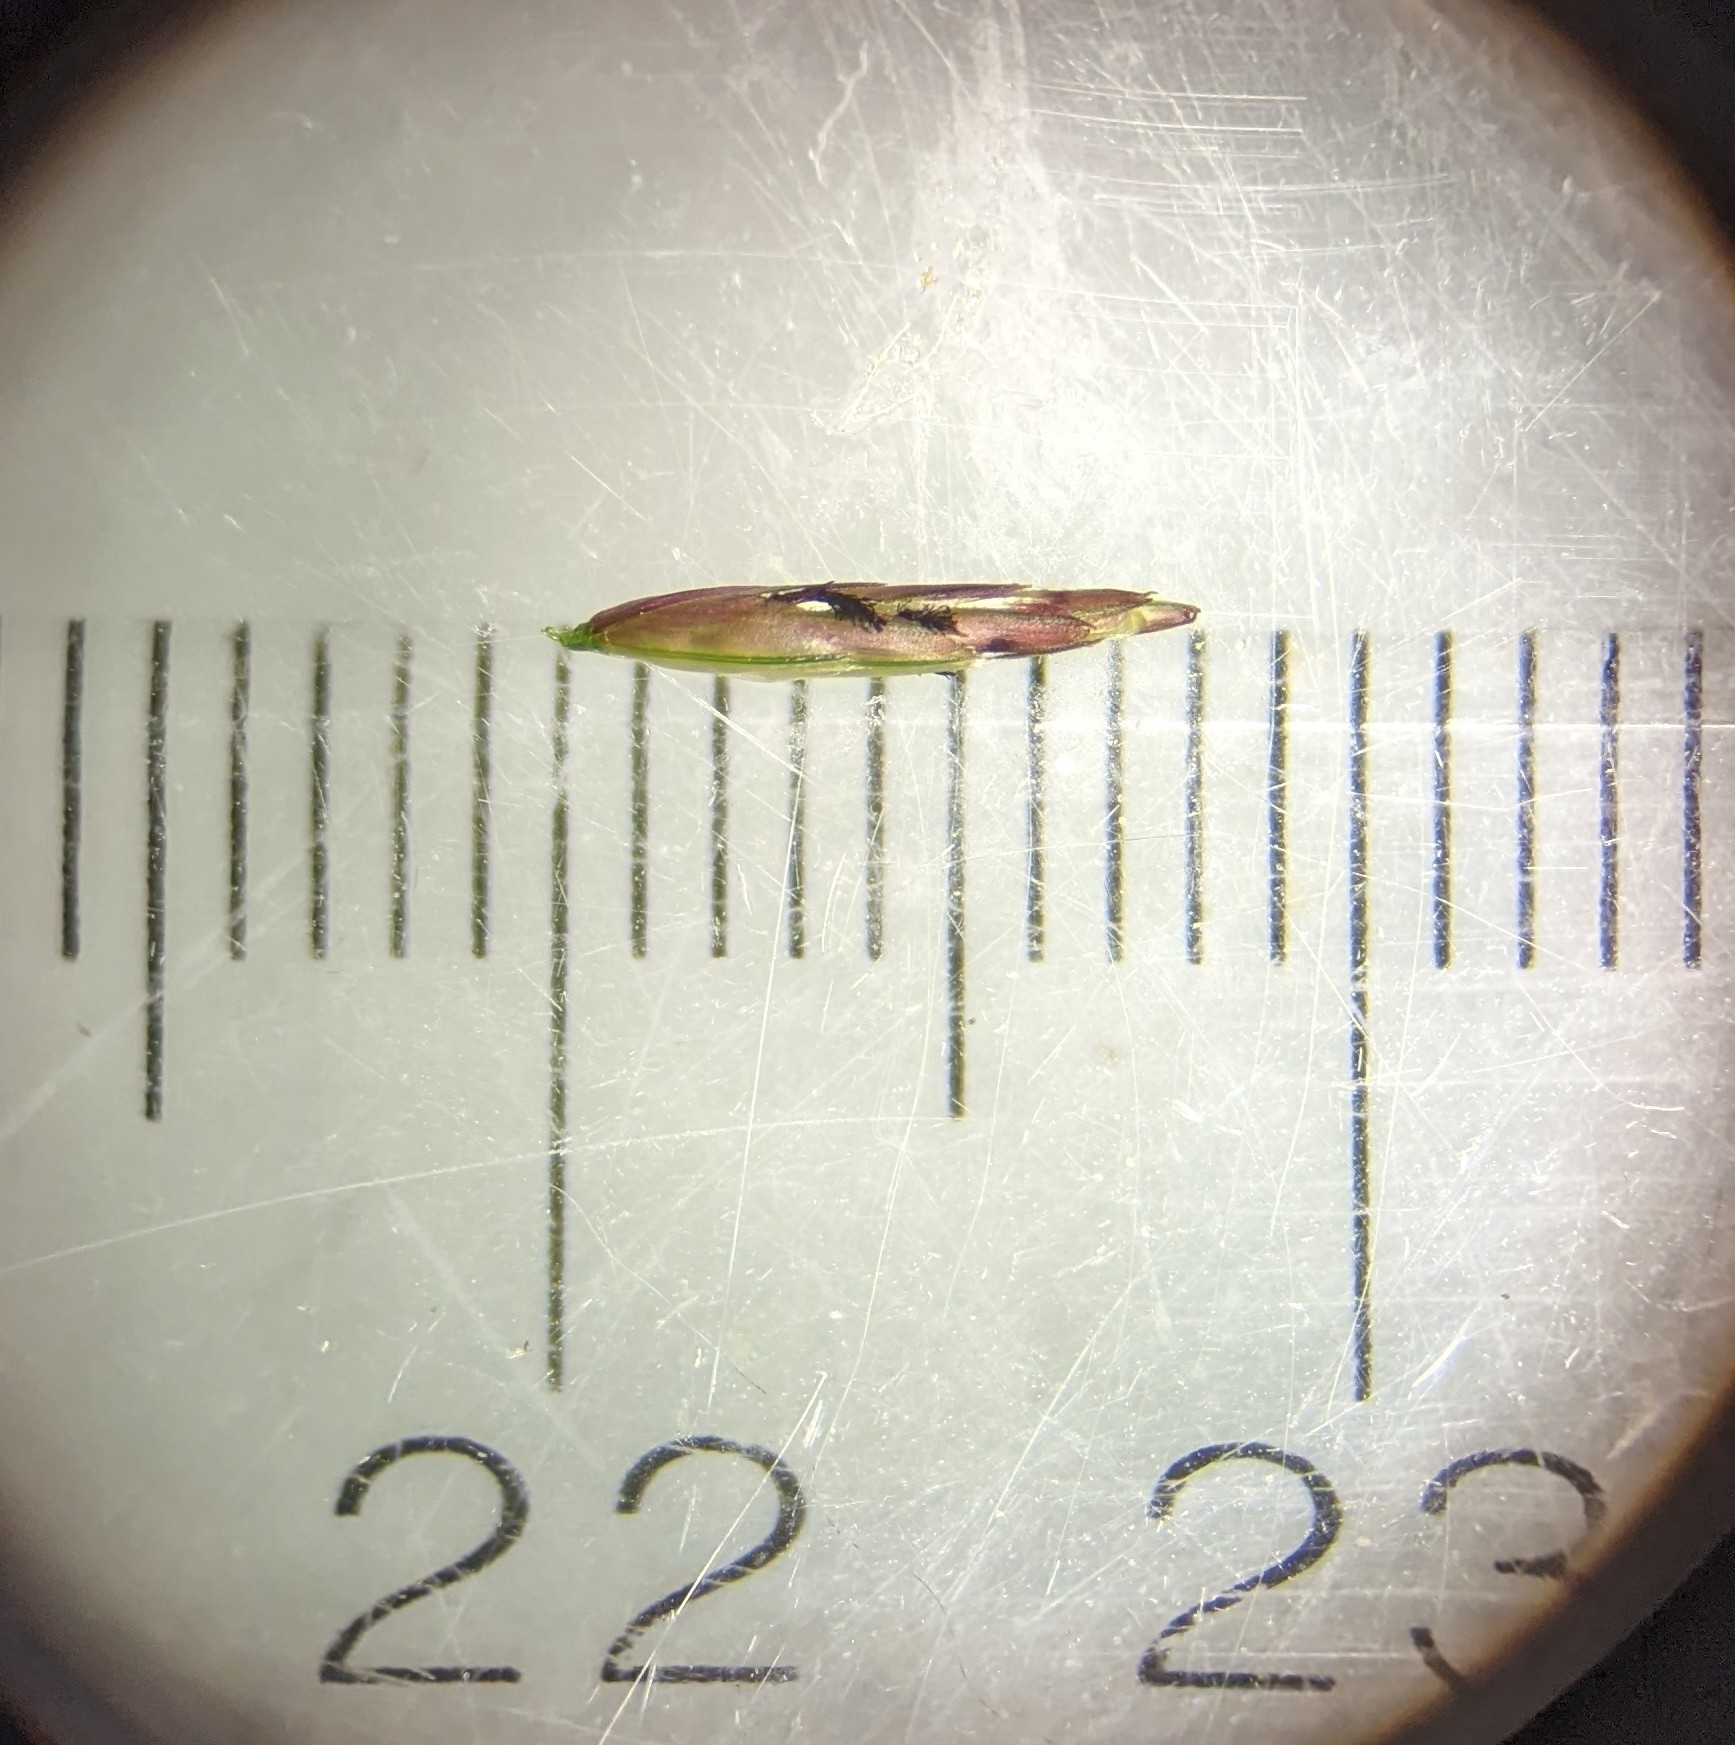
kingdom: Plantae
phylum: Tracheophyta
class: Liliopsida
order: Poales
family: Poaceae
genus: Tridens
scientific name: Tridens flavus
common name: Purpletop
